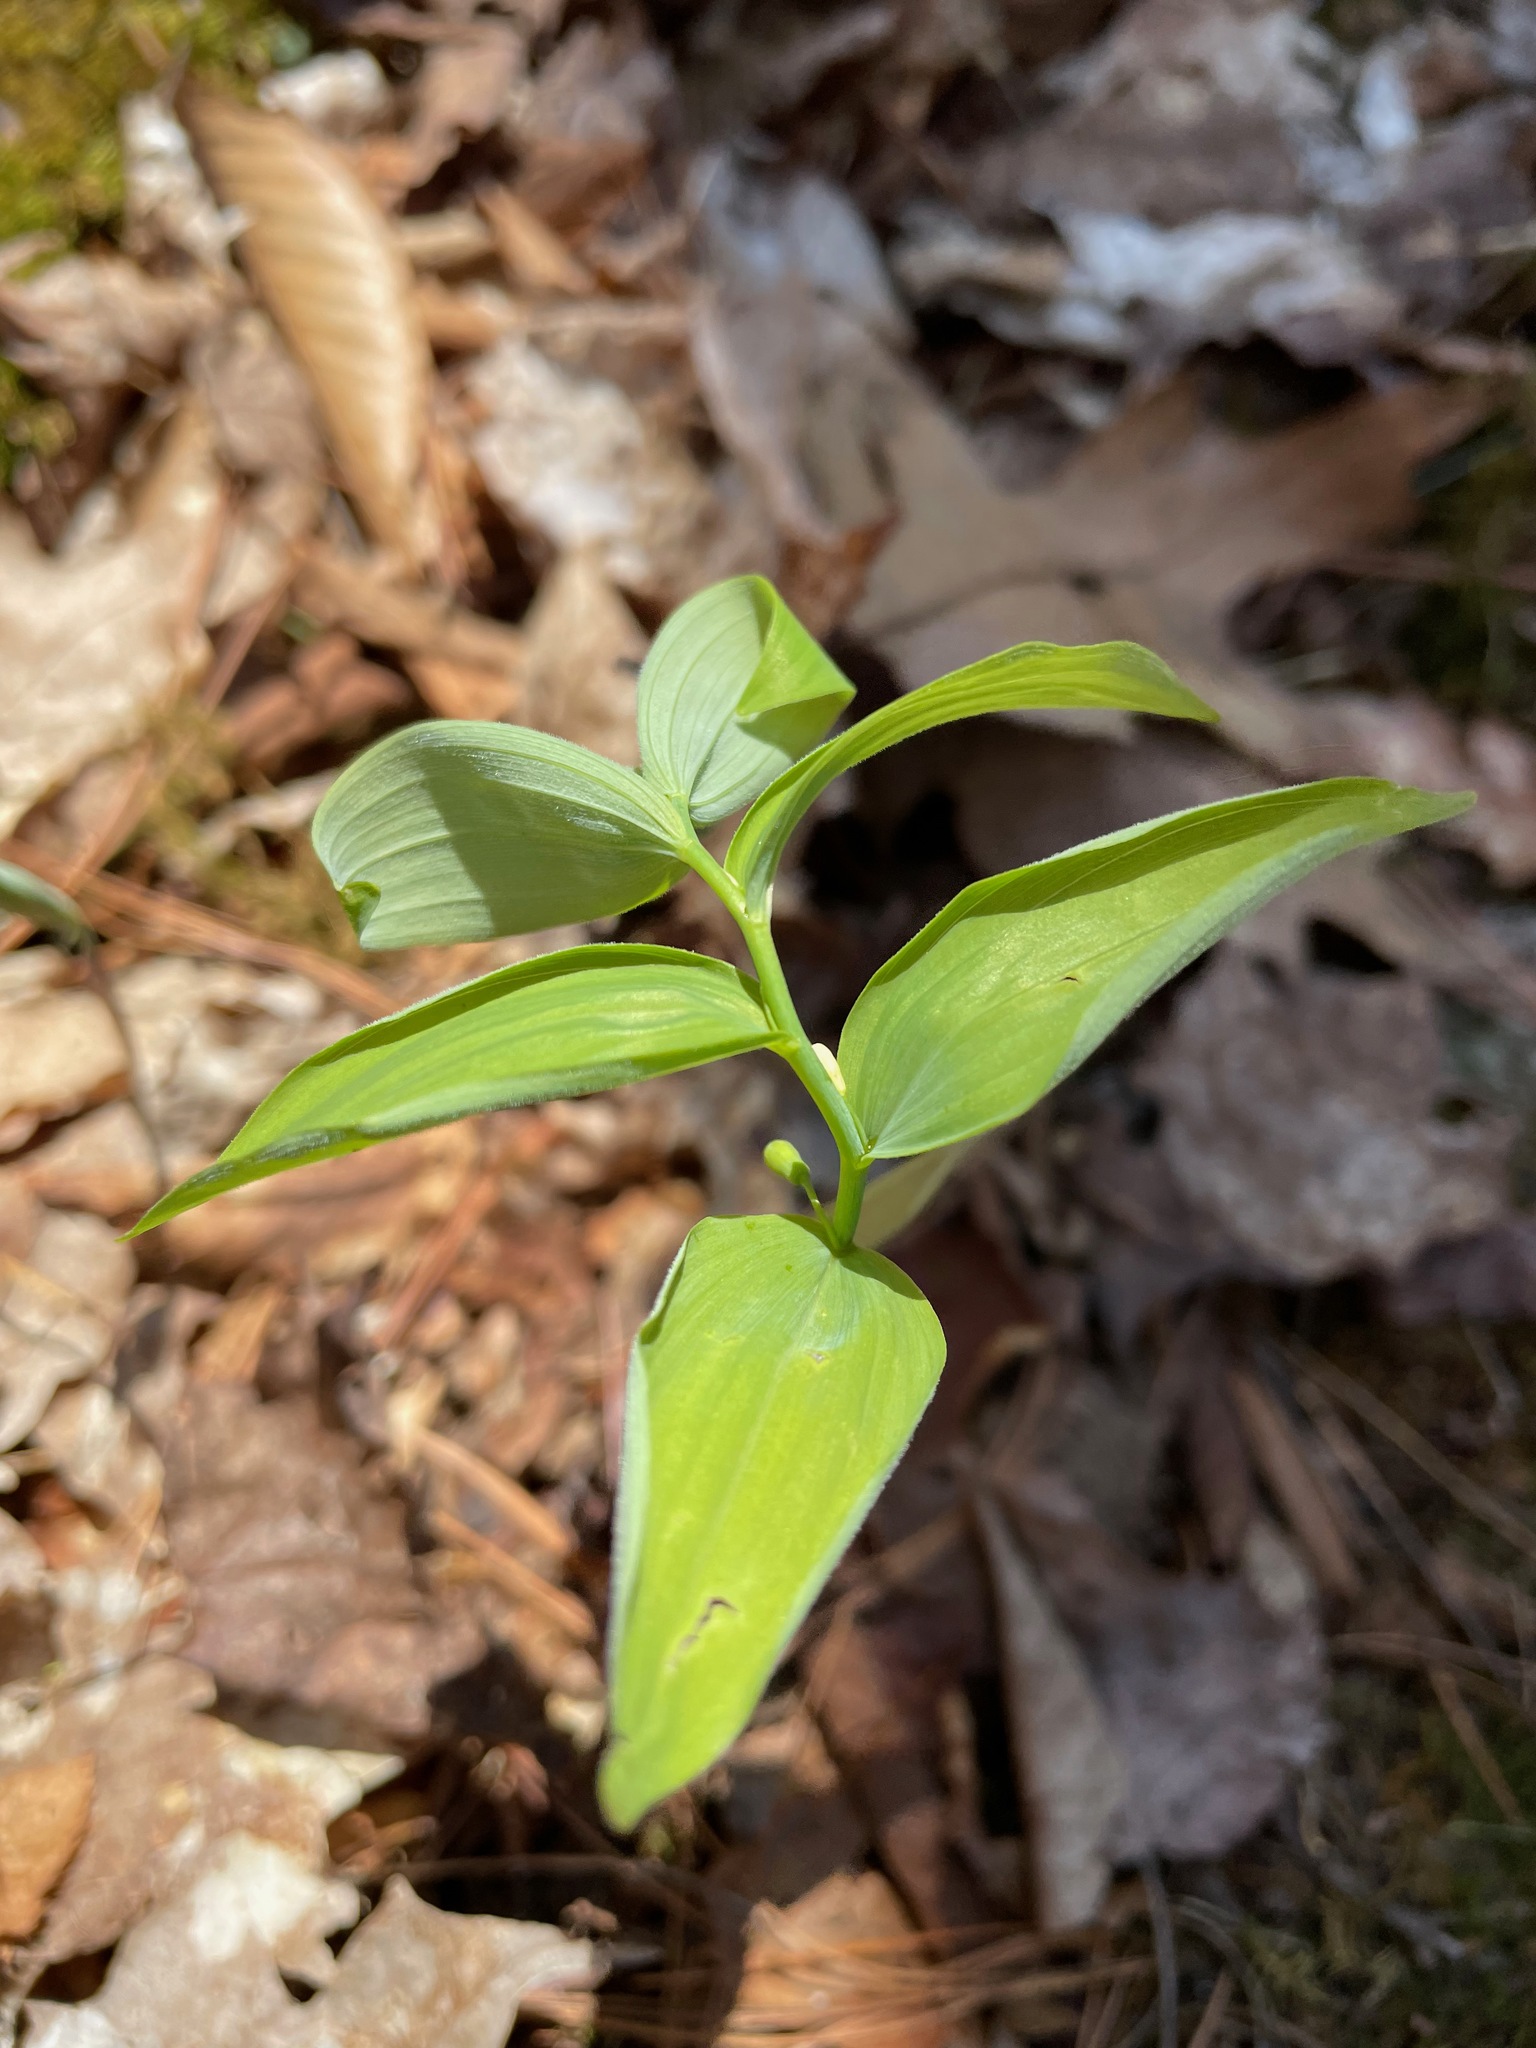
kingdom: Plantae
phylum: Tracheophyta
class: Liliopsida
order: Asparagales
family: Asparagaceae
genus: Polygonatum
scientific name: Polygonatum pubescens
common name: Downy solomon's seal
